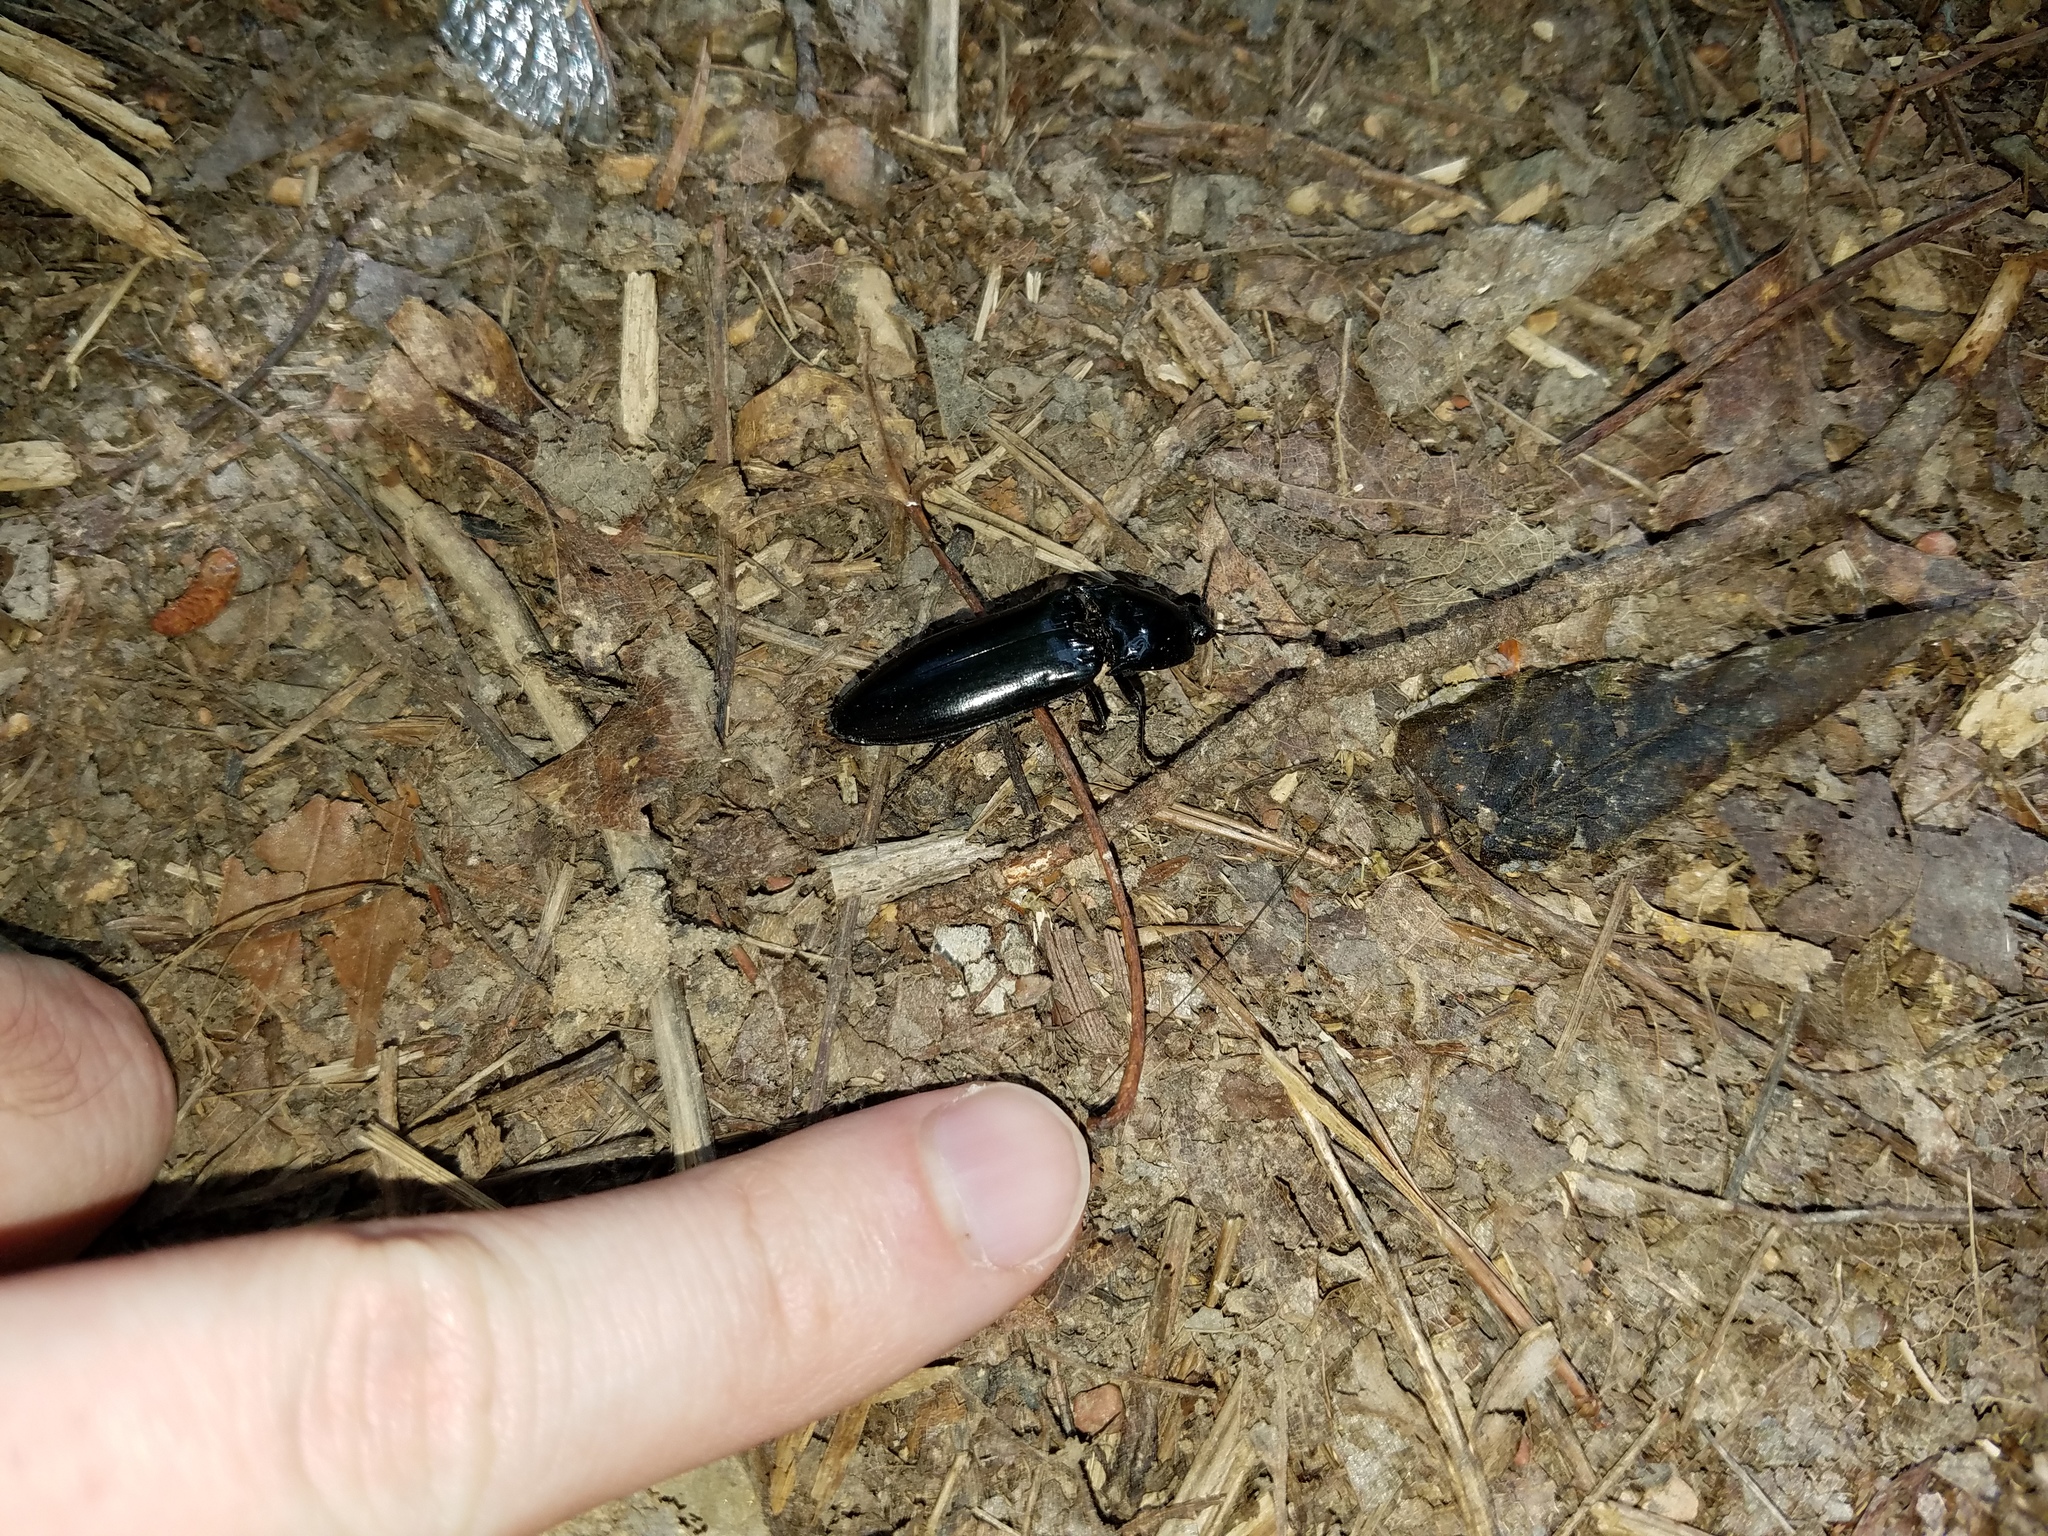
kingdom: Animalia
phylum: Arthropoda
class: Insecta
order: Coleoptera
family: Elateridae
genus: Melanactes
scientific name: Melanactes piceus
